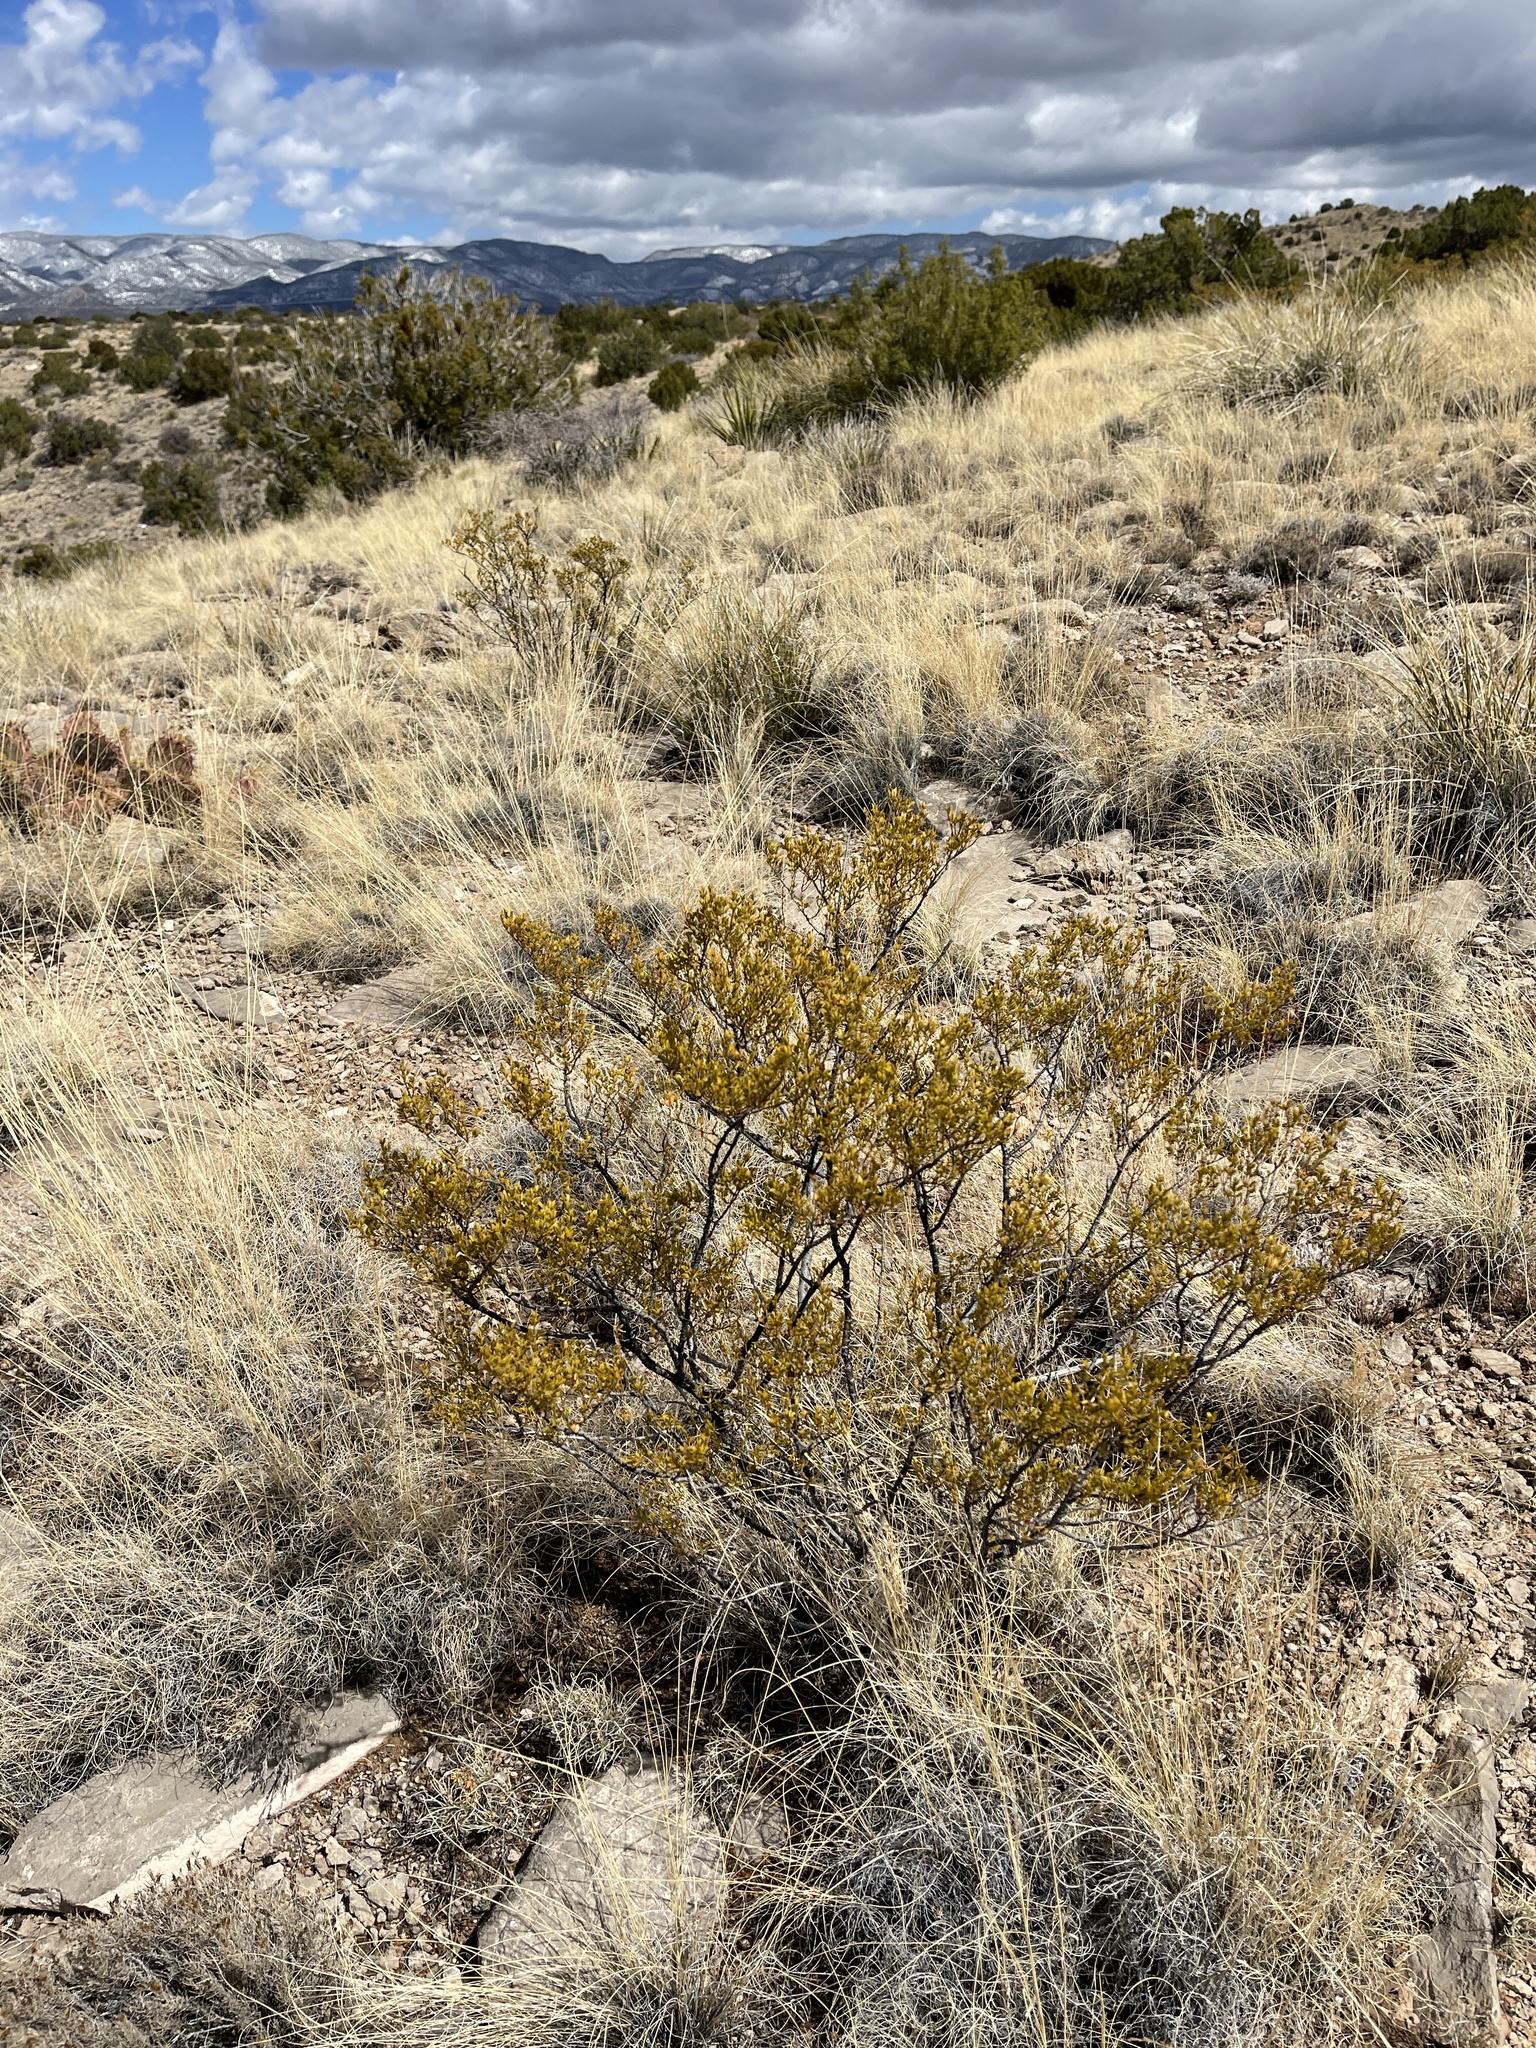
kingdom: Plantae
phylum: Tracheophyta
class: Magnoliopsida
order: Zygophyllales
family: Zygophyllaceae
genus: Larrea
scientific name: Larrea tridentata
